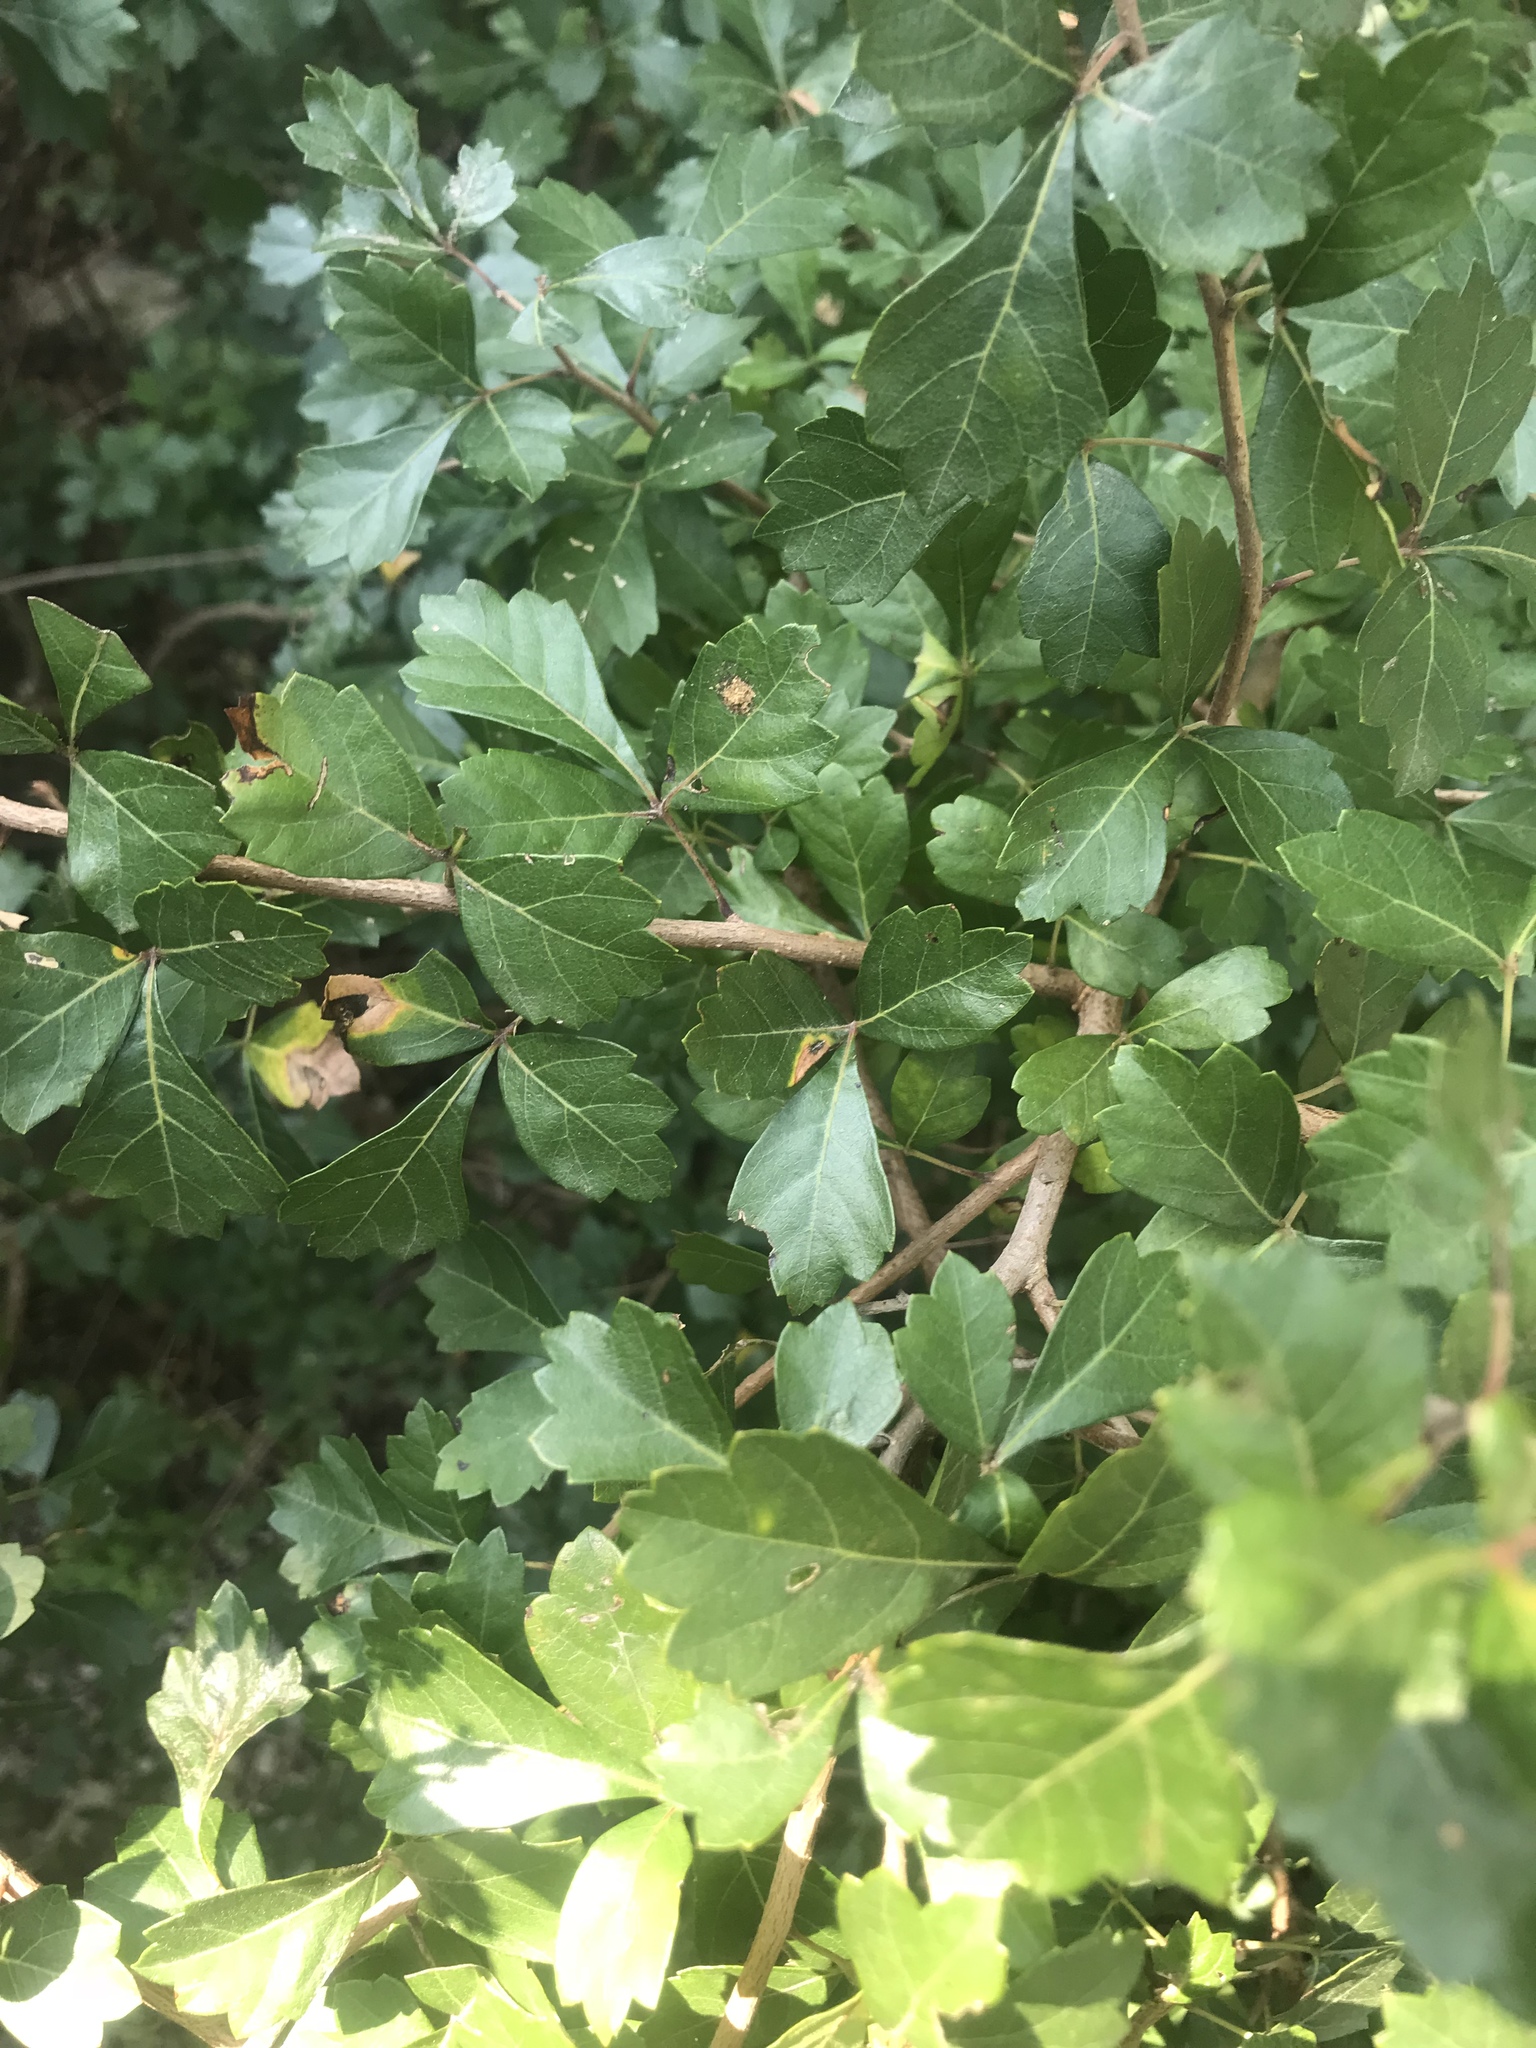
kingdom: Plantae
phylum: Tracheophyta
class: Magnoliopsida
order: Sapindales
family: Anacardiaceae
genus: Rhus
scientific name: Rhus aromatica
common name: Aromatic sumac
